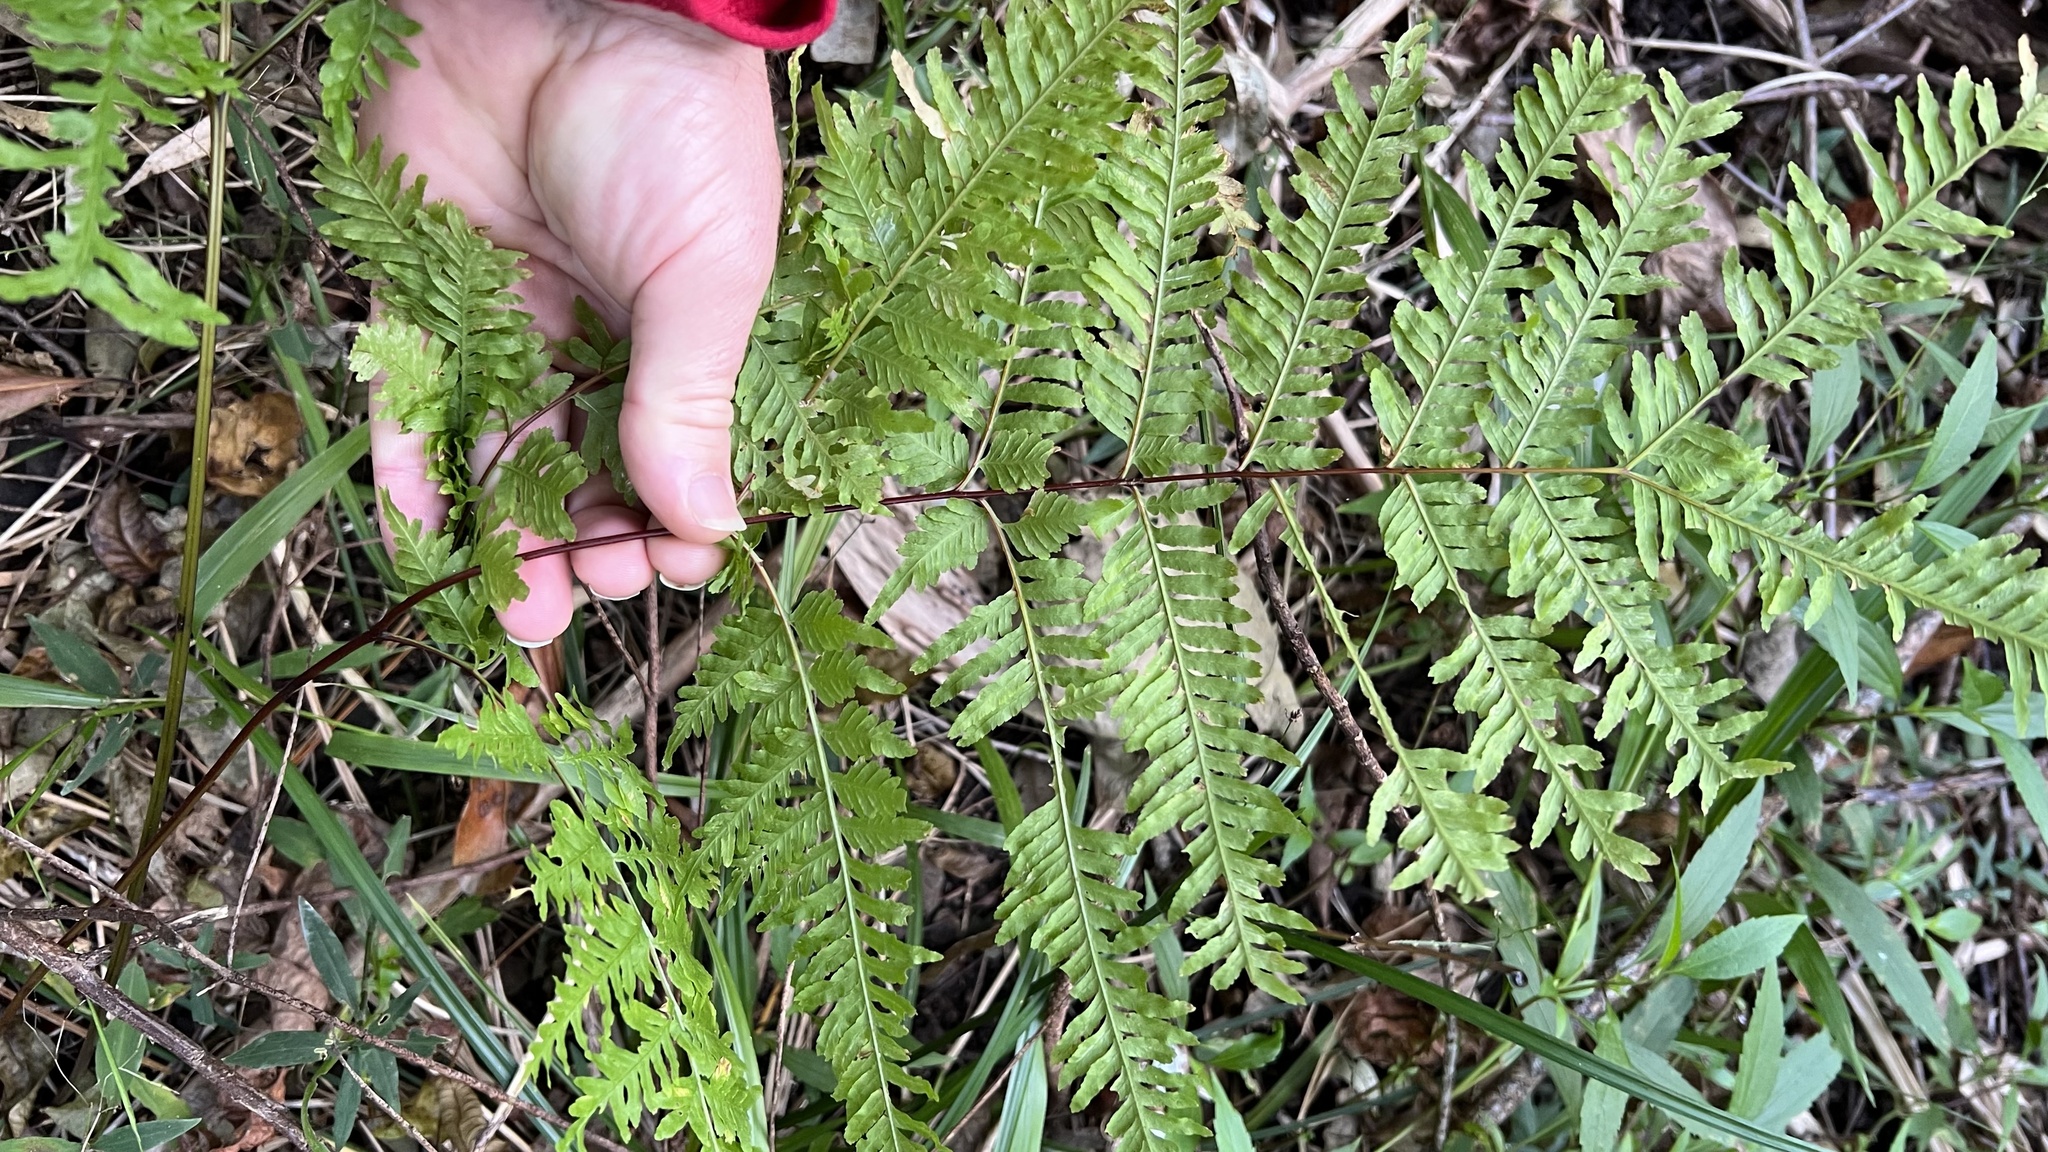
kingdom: Plantae
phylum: Tracheophyta
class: Polypodiopsida
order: Polypodiales
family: Pteridaceae
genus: Pteris
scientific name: Pteris tremula
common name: Australian brake
